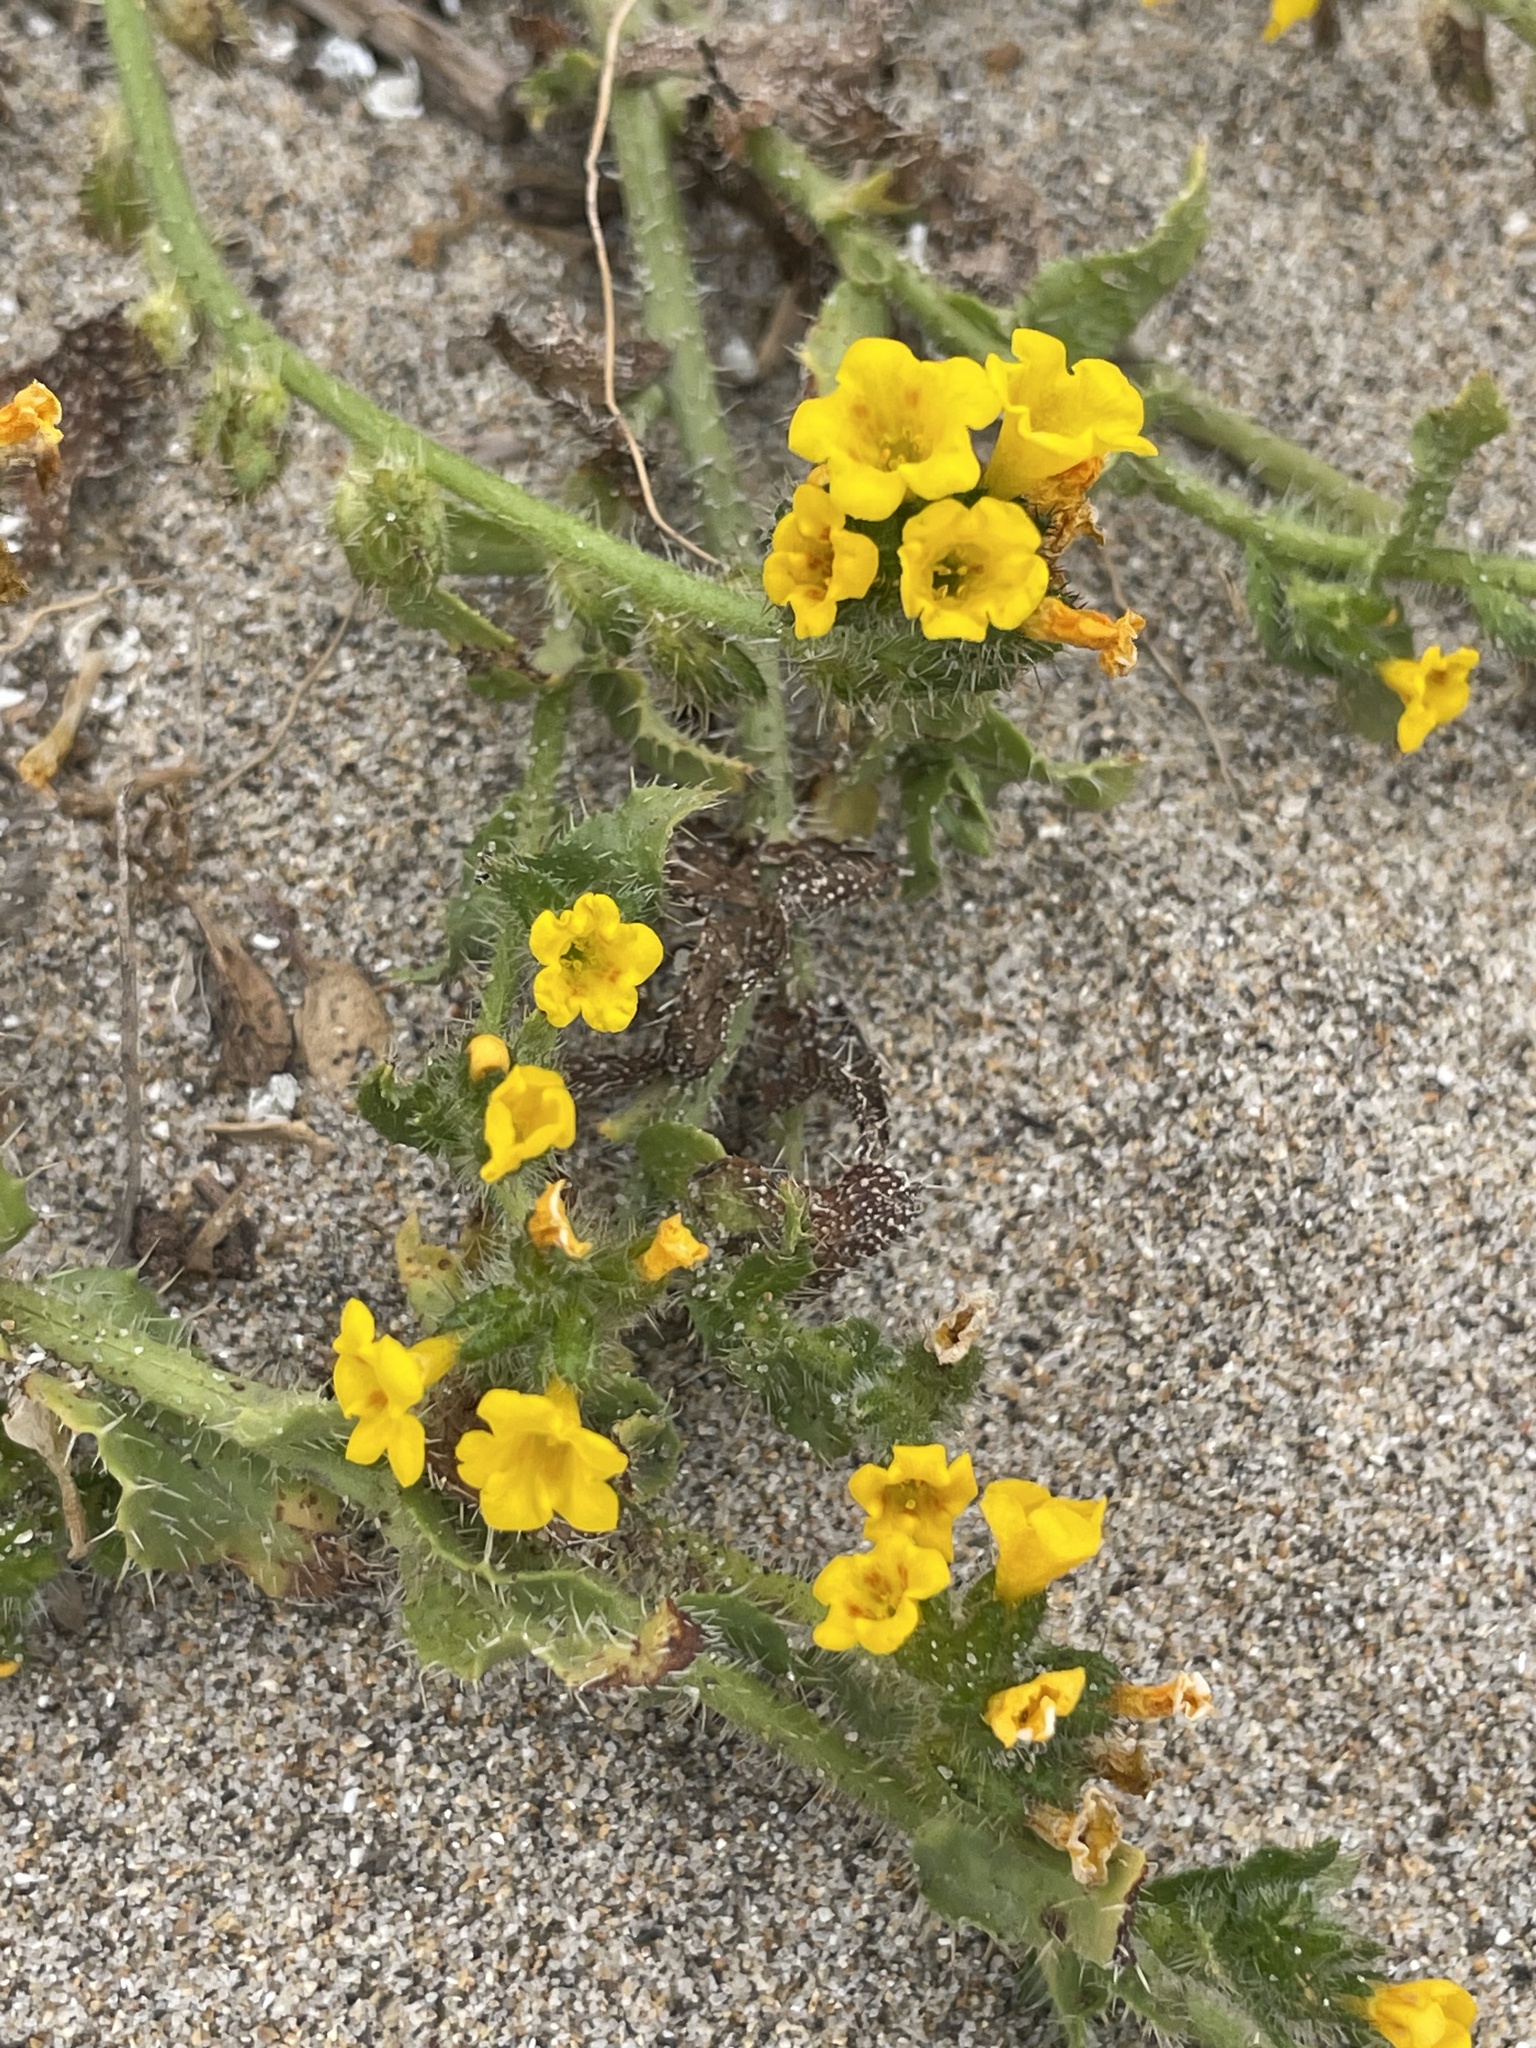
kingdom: Plantae
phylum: Tracheophyta
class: Magnoliopsida
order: Boraginales
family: Boraginaceae
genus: Amsinckia
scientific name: Amsinckia spectabilis
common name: Seaside fiddleneck
